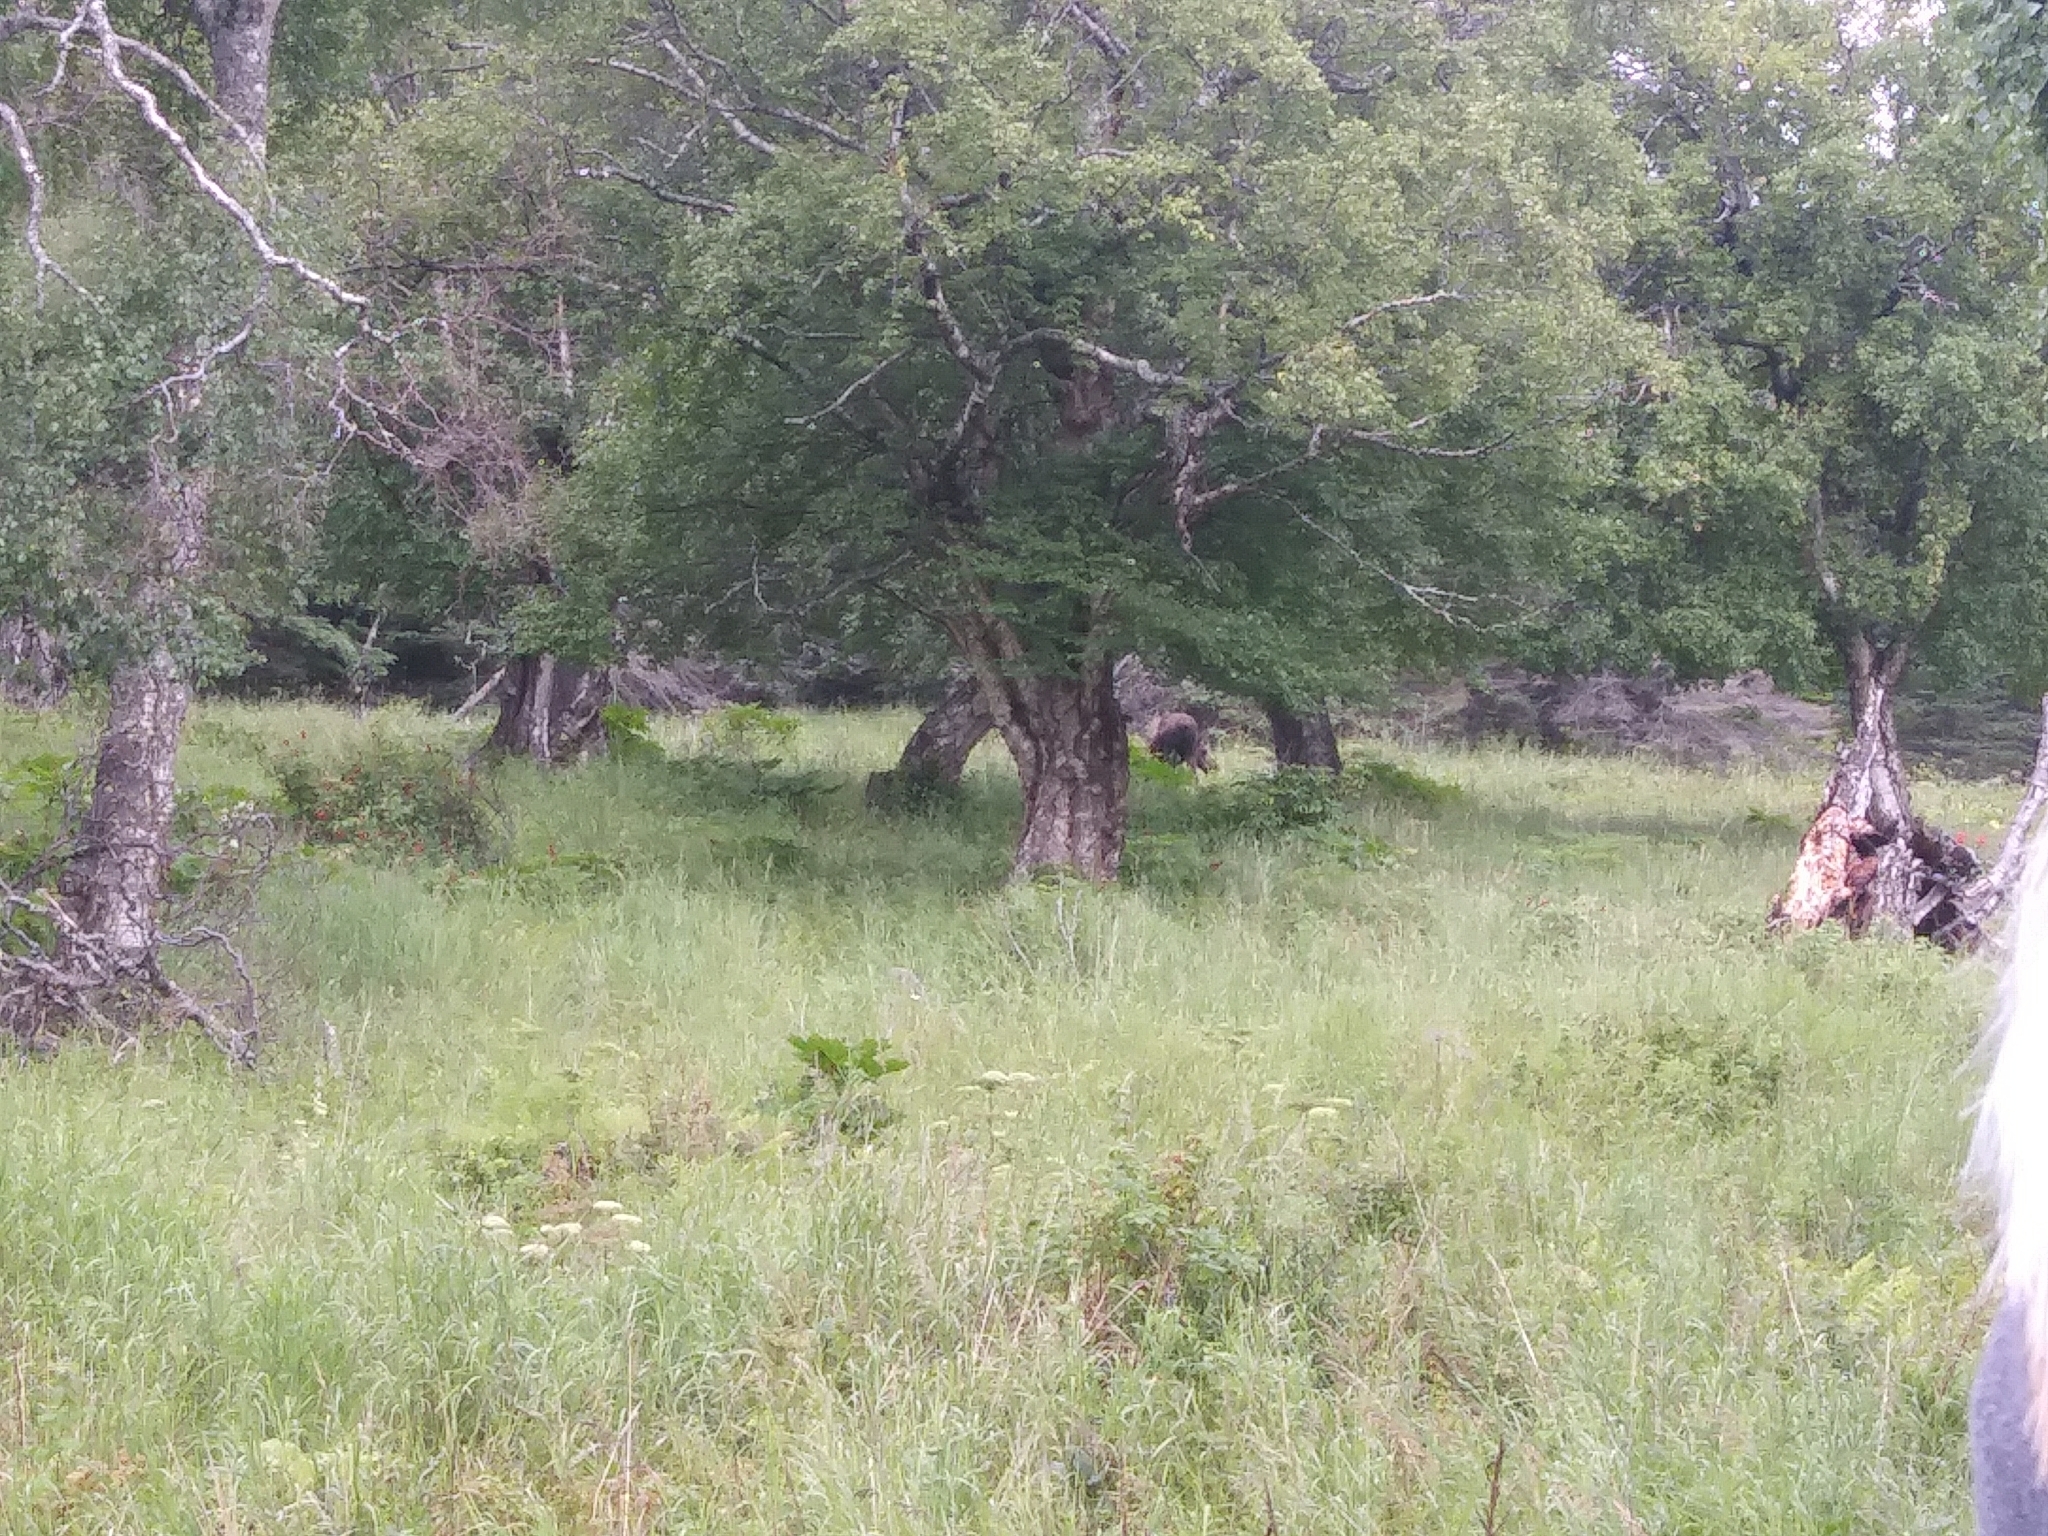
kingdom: Animalia
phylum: Chordata
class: Mammalia
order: Artiodactyla
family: Cervidae
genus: Alces
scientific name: Alces americanus
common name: Moose
